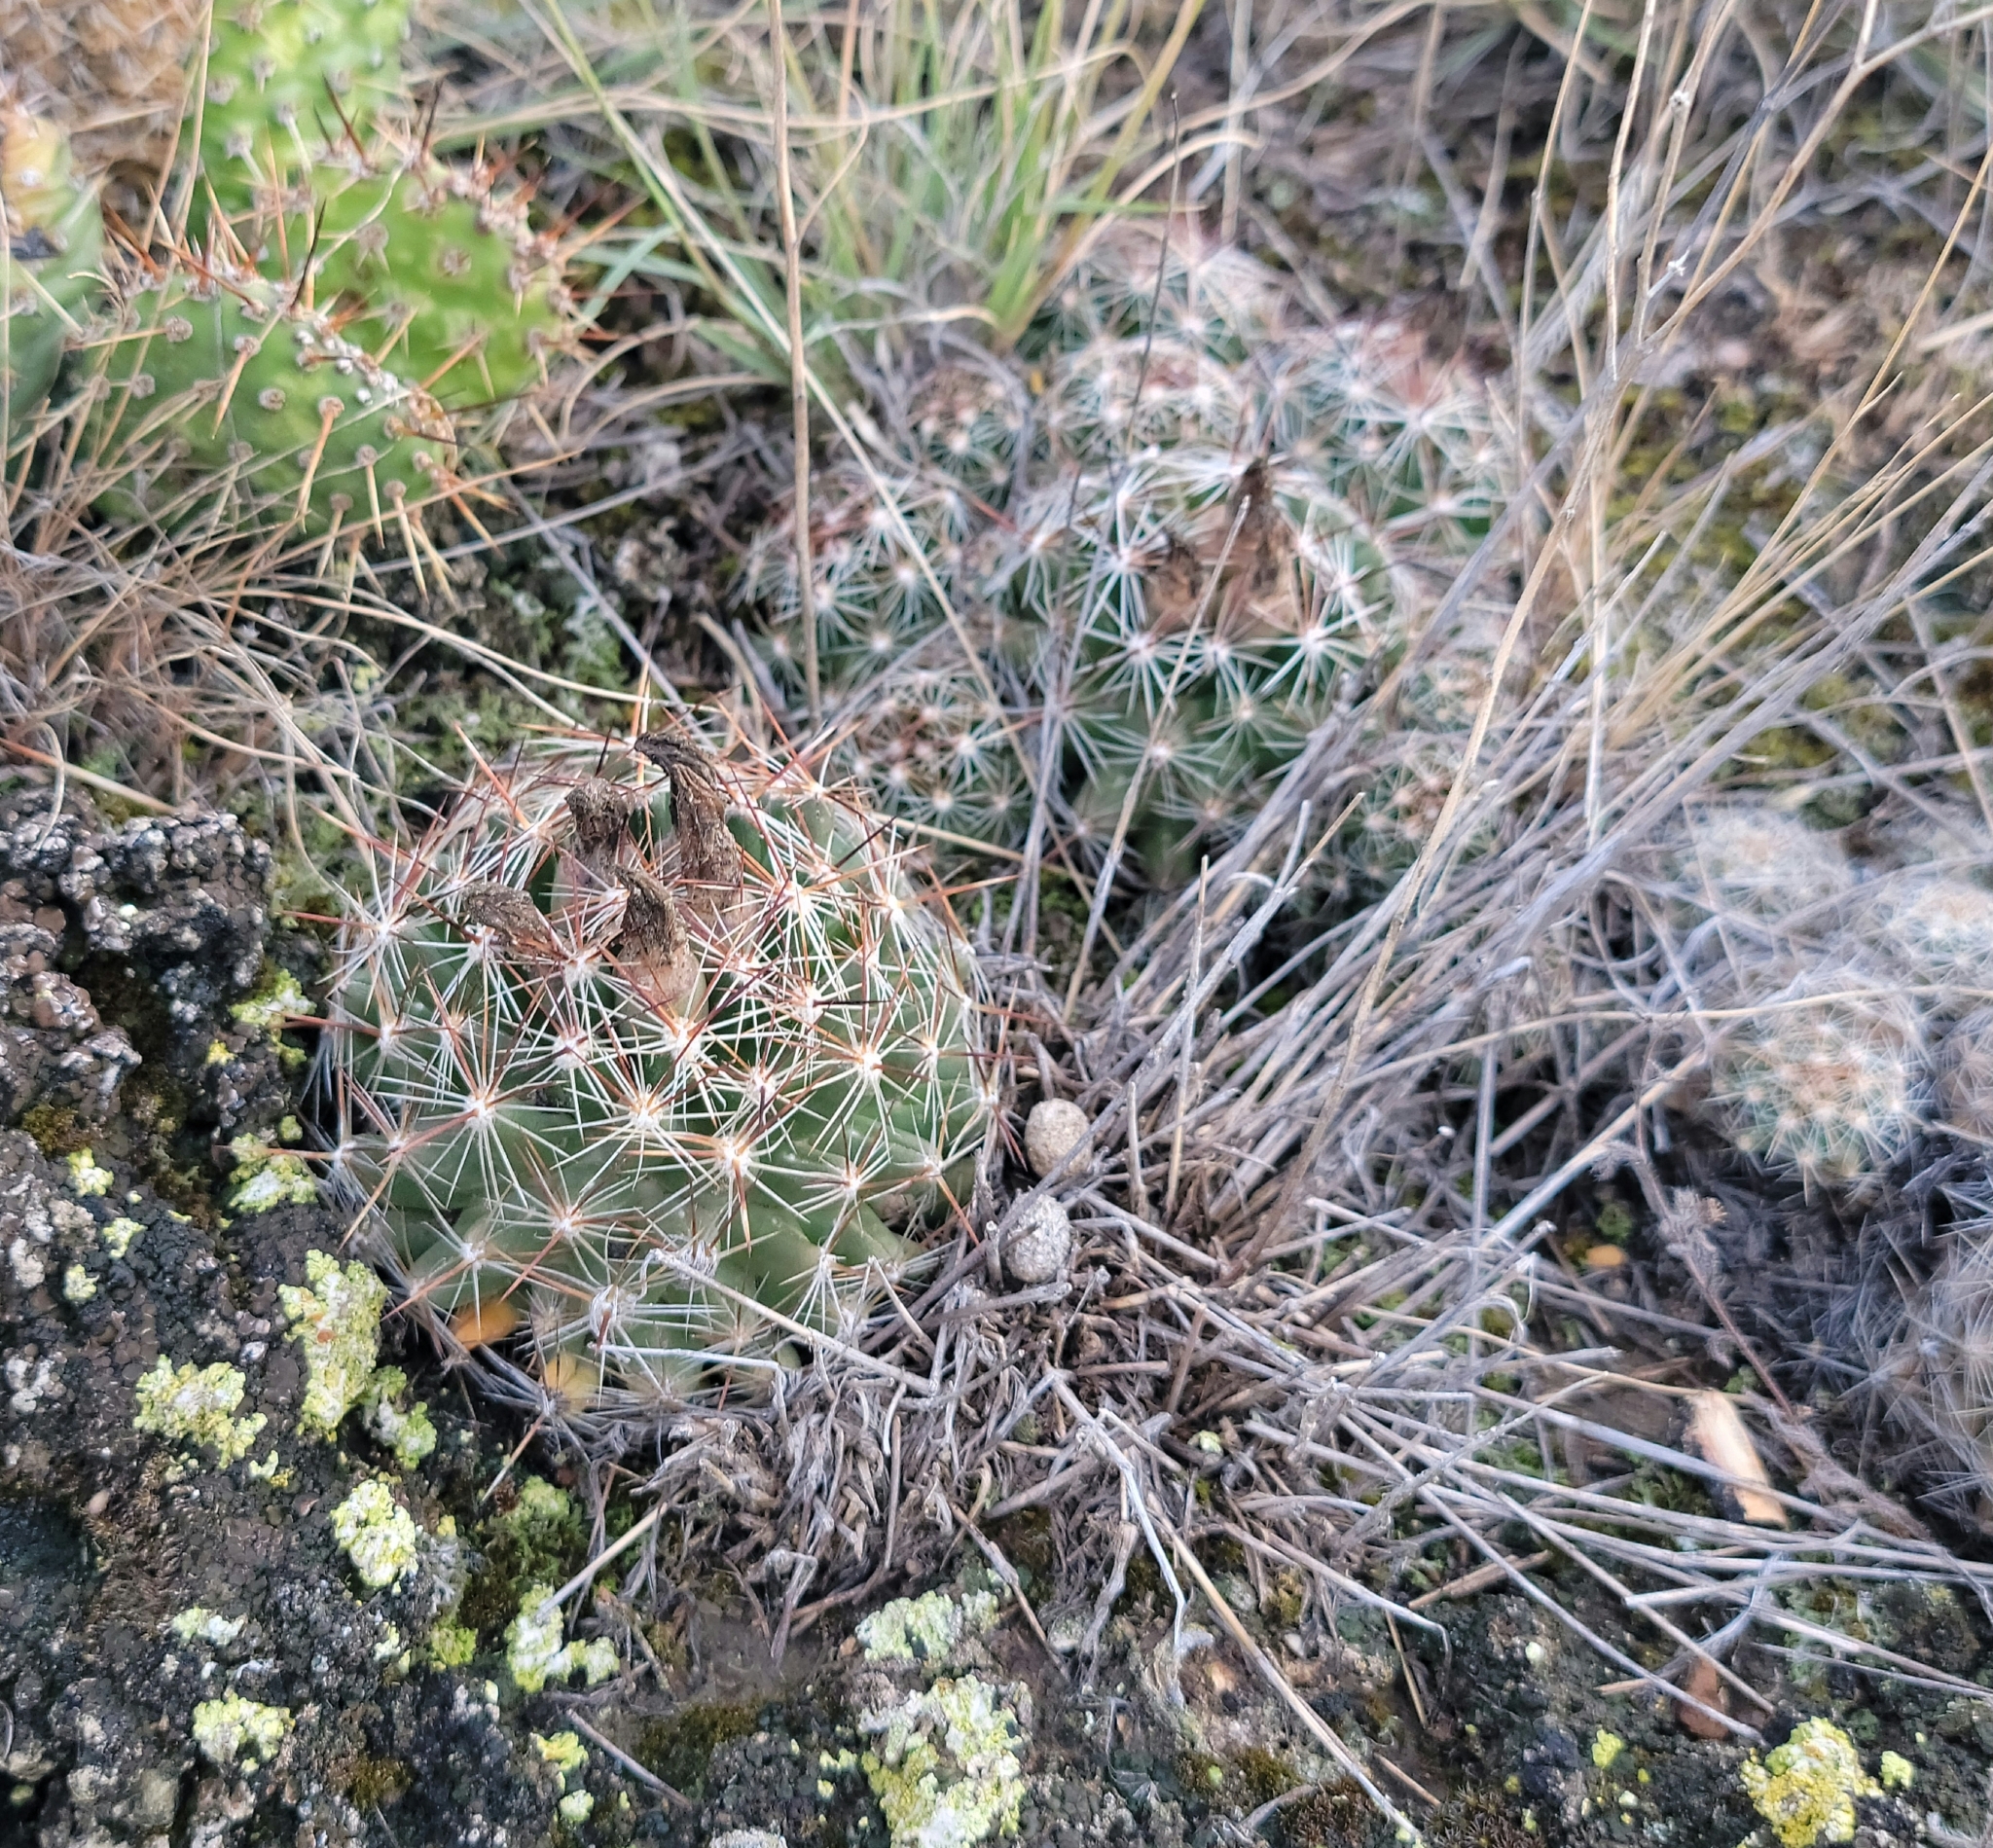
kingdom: Plantae
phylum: Tracheophyta
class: Magnoliopsida
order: Caryophyllales
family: Cactaceae
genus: Pelecyphora
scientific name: Pelecyphora vivipara
